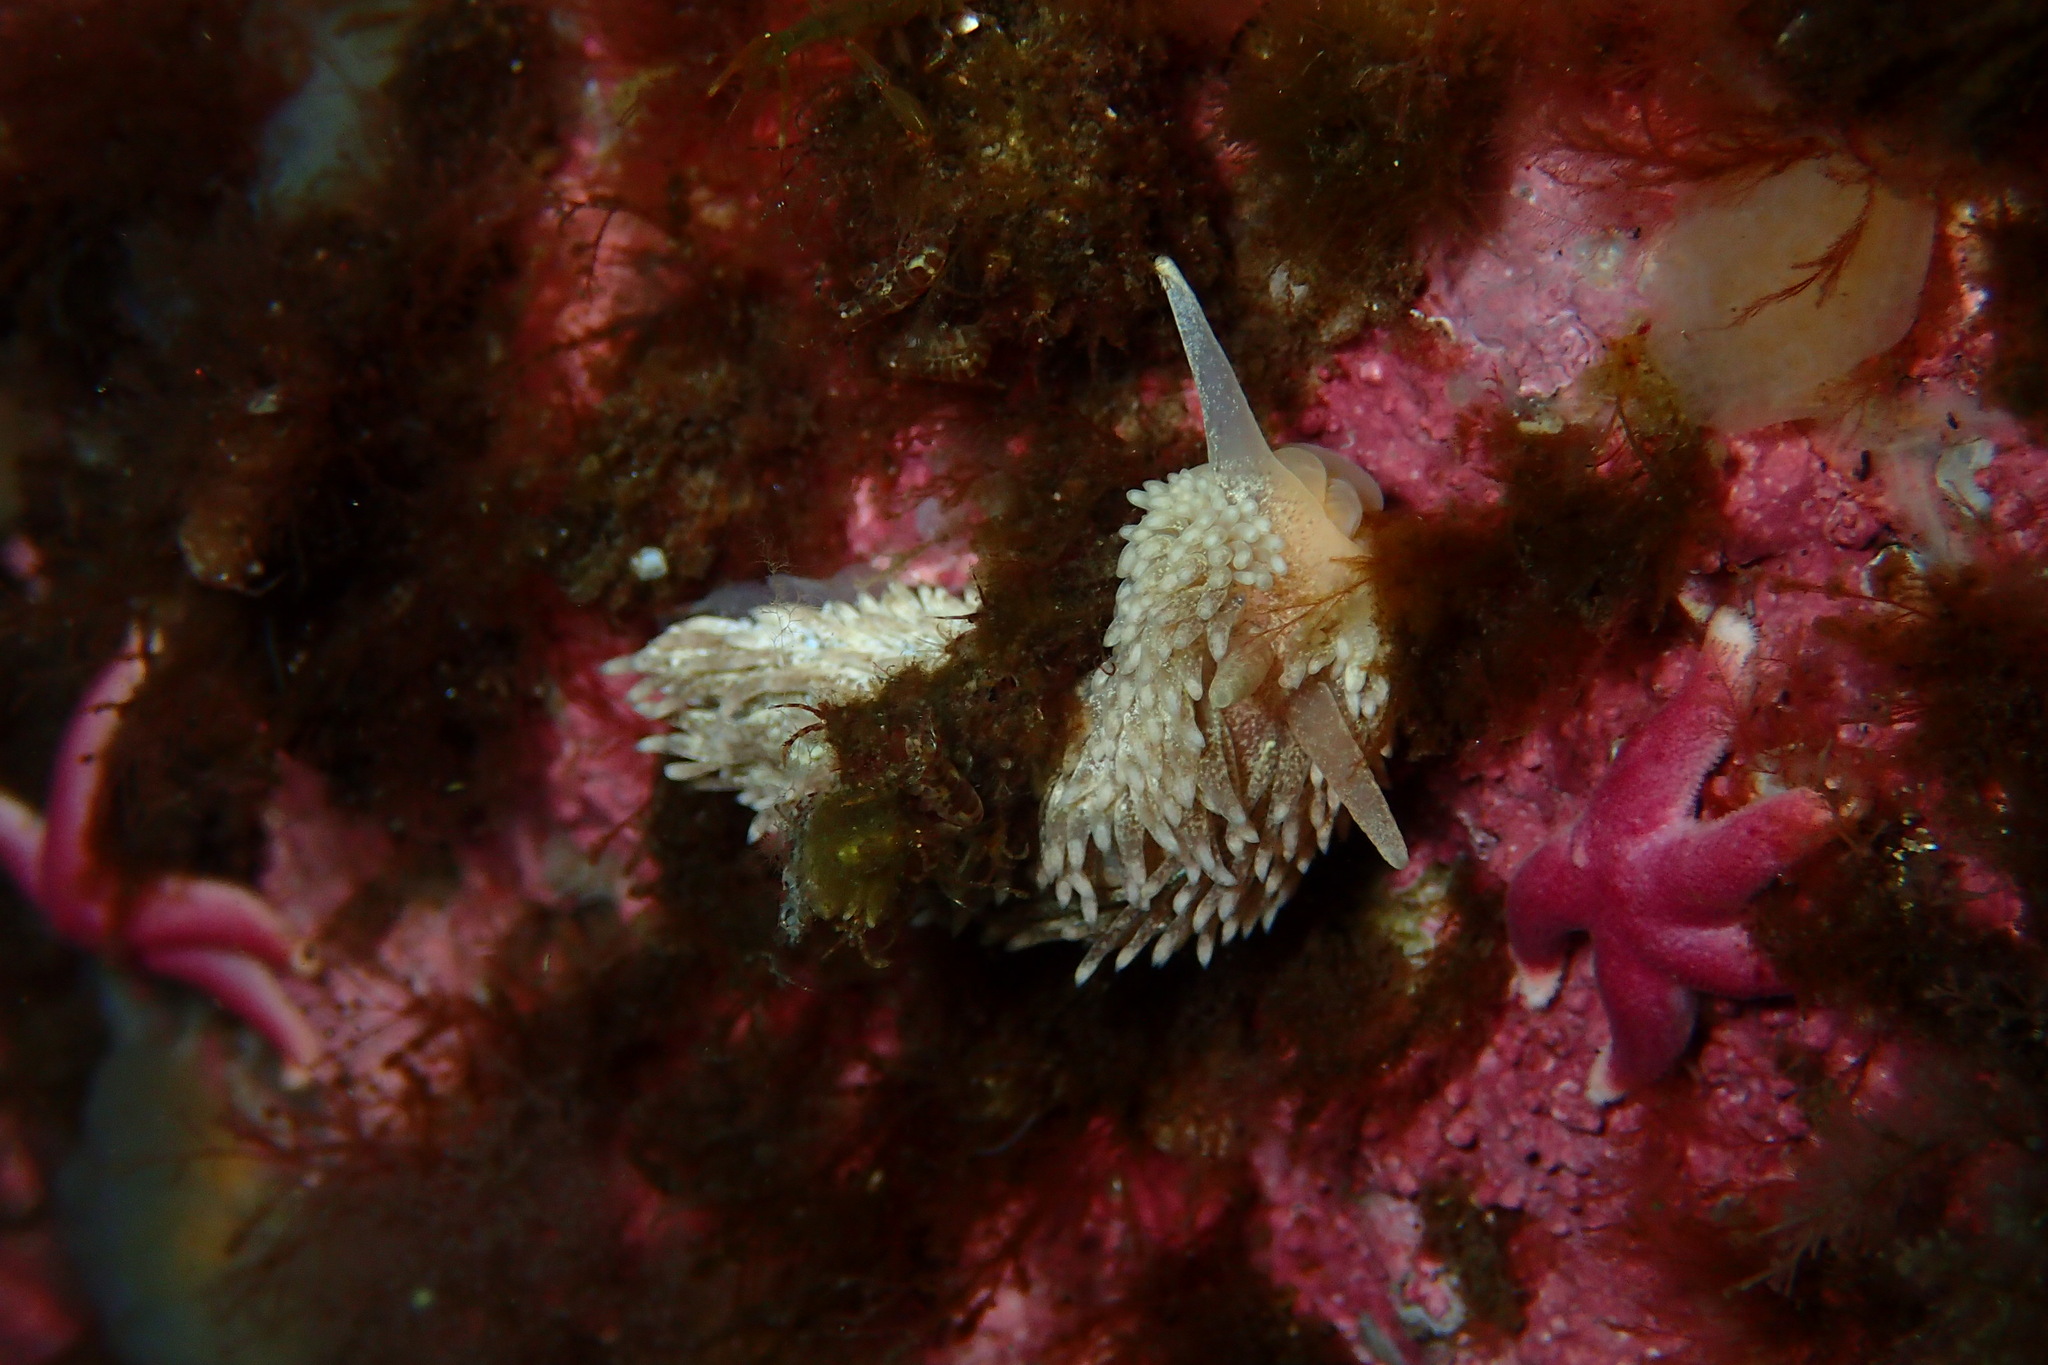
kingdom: Animalia
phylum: Mollusca
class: Gastropoda
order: Nudibranchia
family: Aeolidiidae
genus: Aeolidia
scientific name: Aeolidia papillosa
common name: Common grey sea slug
